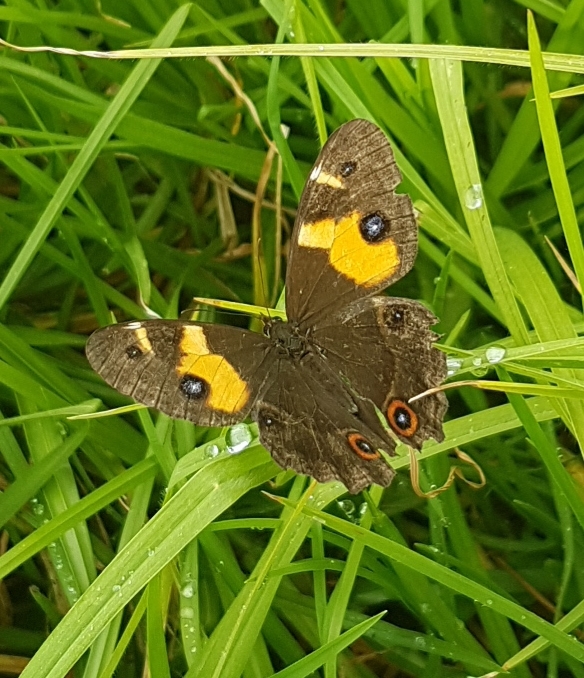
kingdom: Animalia
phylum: Arthropoda
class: Insecta
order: Lepidoptera
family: Nymphalidae
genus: Tisiphone
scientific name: Tisiphone abeona
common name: Swordgrass brown
